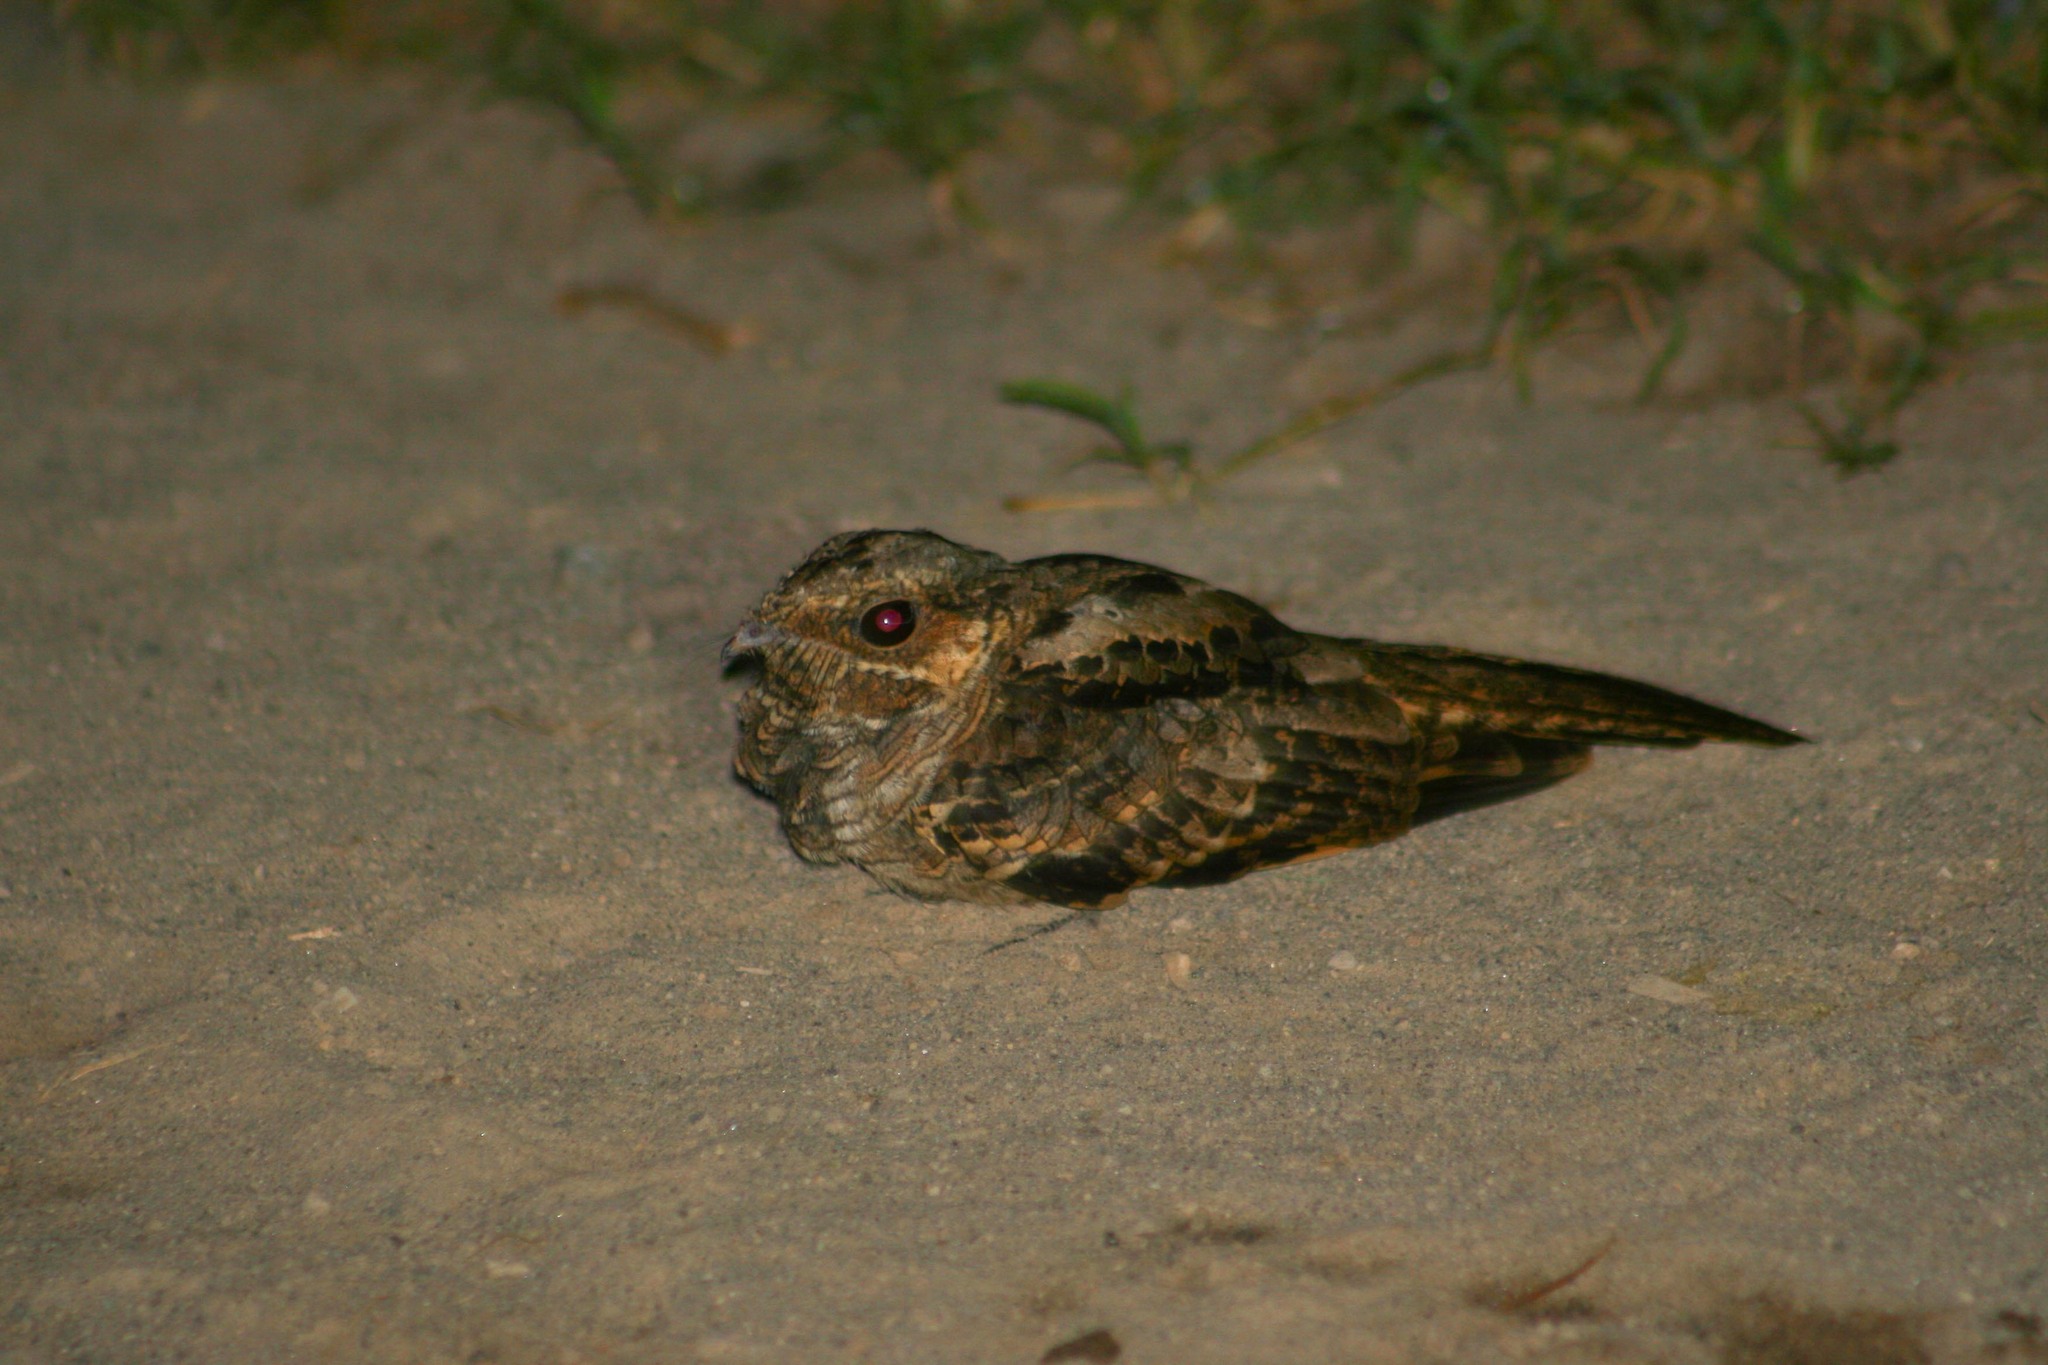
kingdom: Animalia
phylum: Chordata
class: Aves
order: Caprimulgiformes
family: Caprimulgidae
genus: Nyctidromus
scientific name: Nyctidromus albicollis
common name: Pauraque
